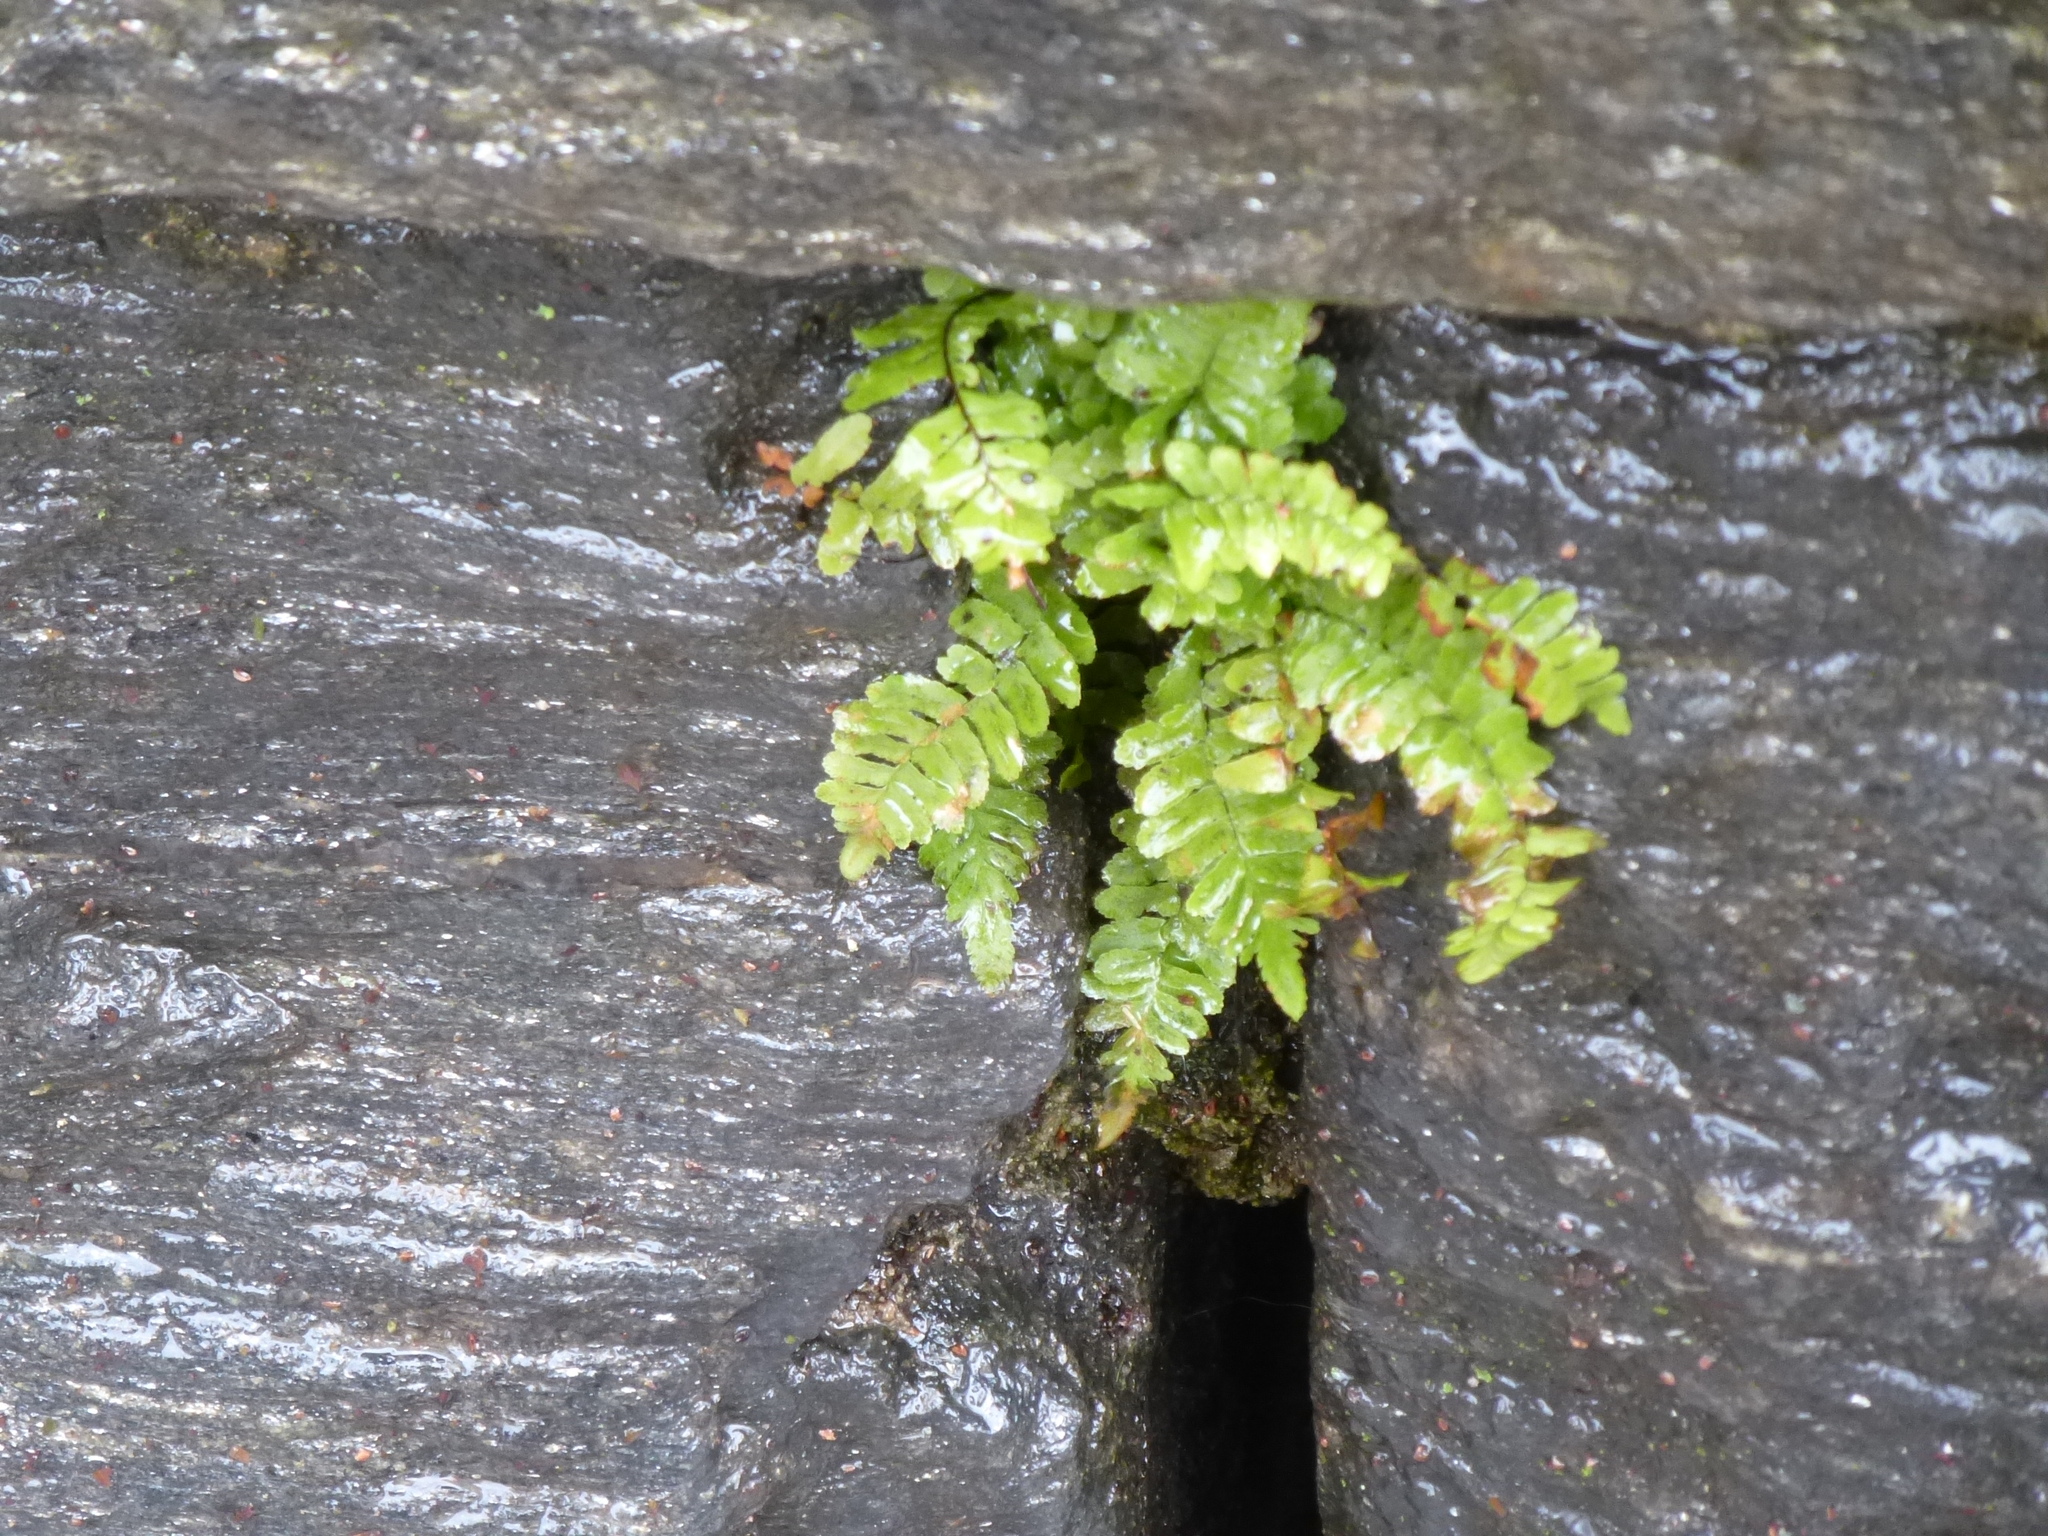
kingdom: Plantae
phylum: Tracheophyta
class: Polypodiopsida
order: Polypodiales
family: Aspleniaceae
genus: Asplenium
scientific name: Asplenium platyneuron
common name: Ebony spleenwort
